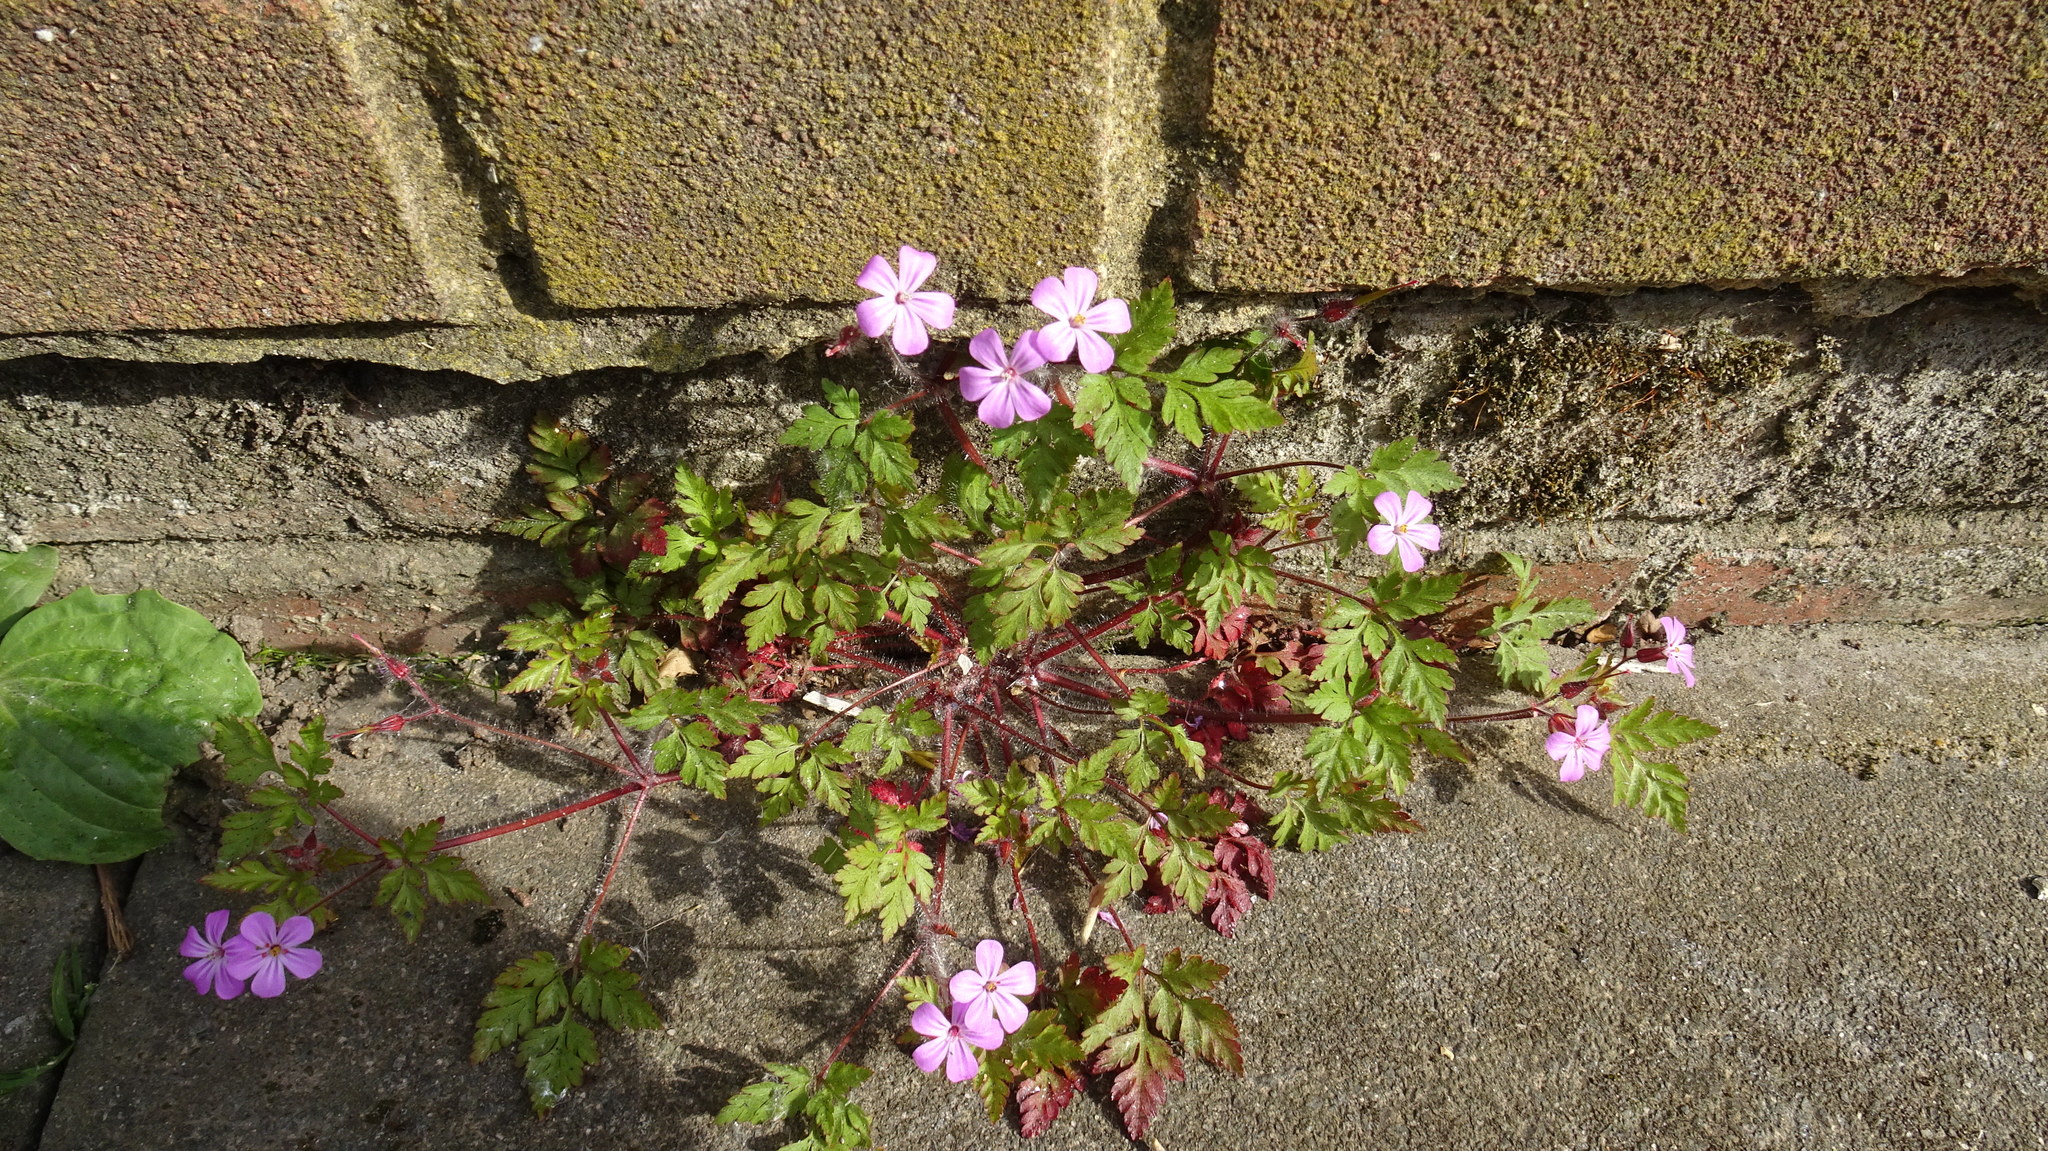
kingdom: Plantae
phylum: Tracheophyta
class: Magnoliopsida
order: Geraniales
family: Geraniaceae
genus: Geranium
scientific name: Geranium robertianum
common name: Herb-robert
